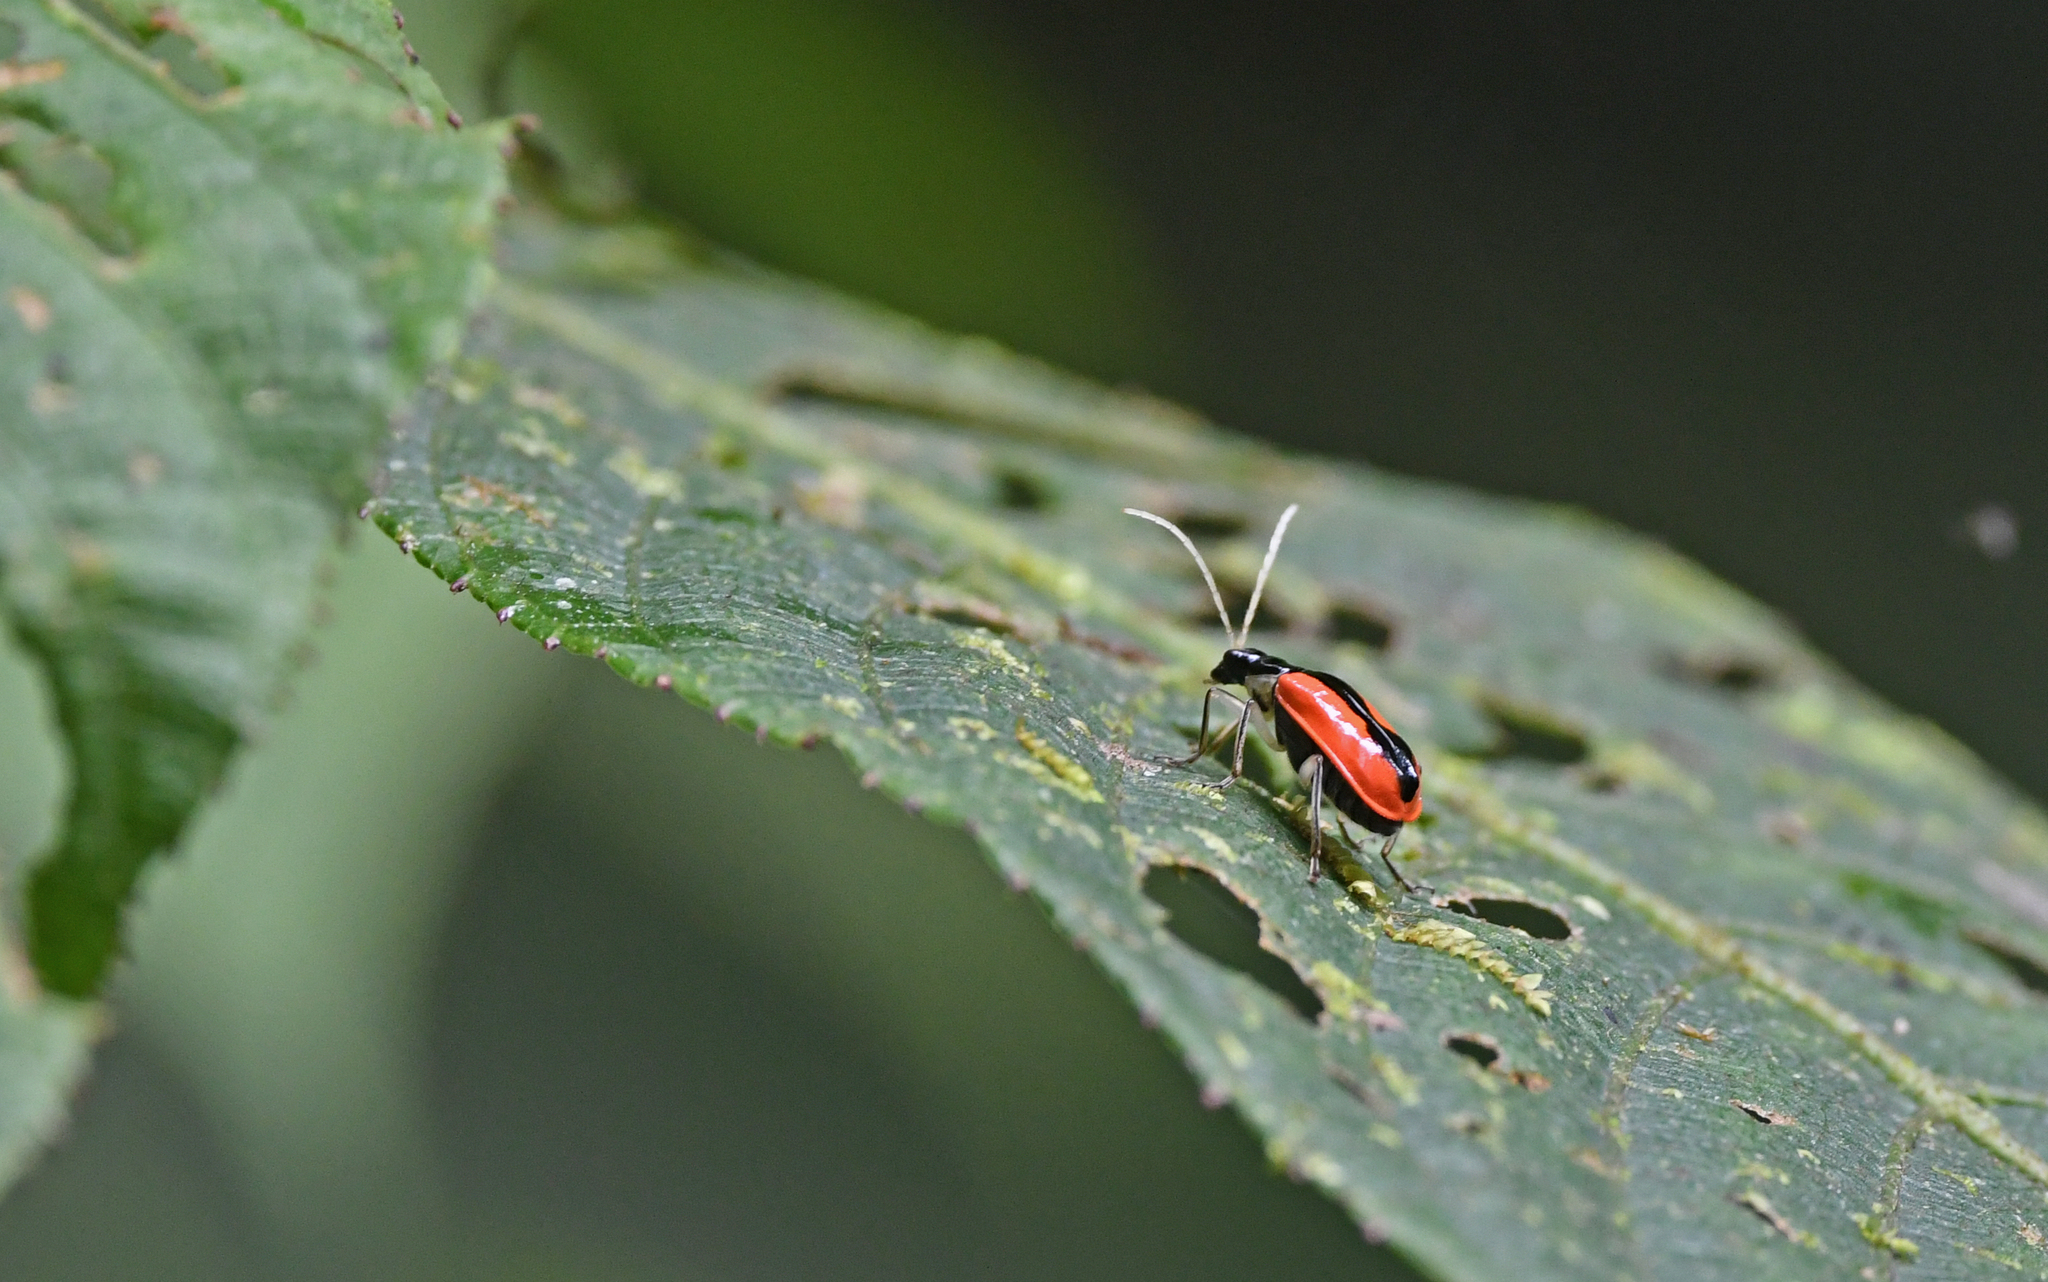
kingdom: Animalia
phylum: Arthropoda
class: Insecta
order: Coleoptera
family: Chrysomelidae
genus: Paratriarius
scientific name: Paratriarius tropica
